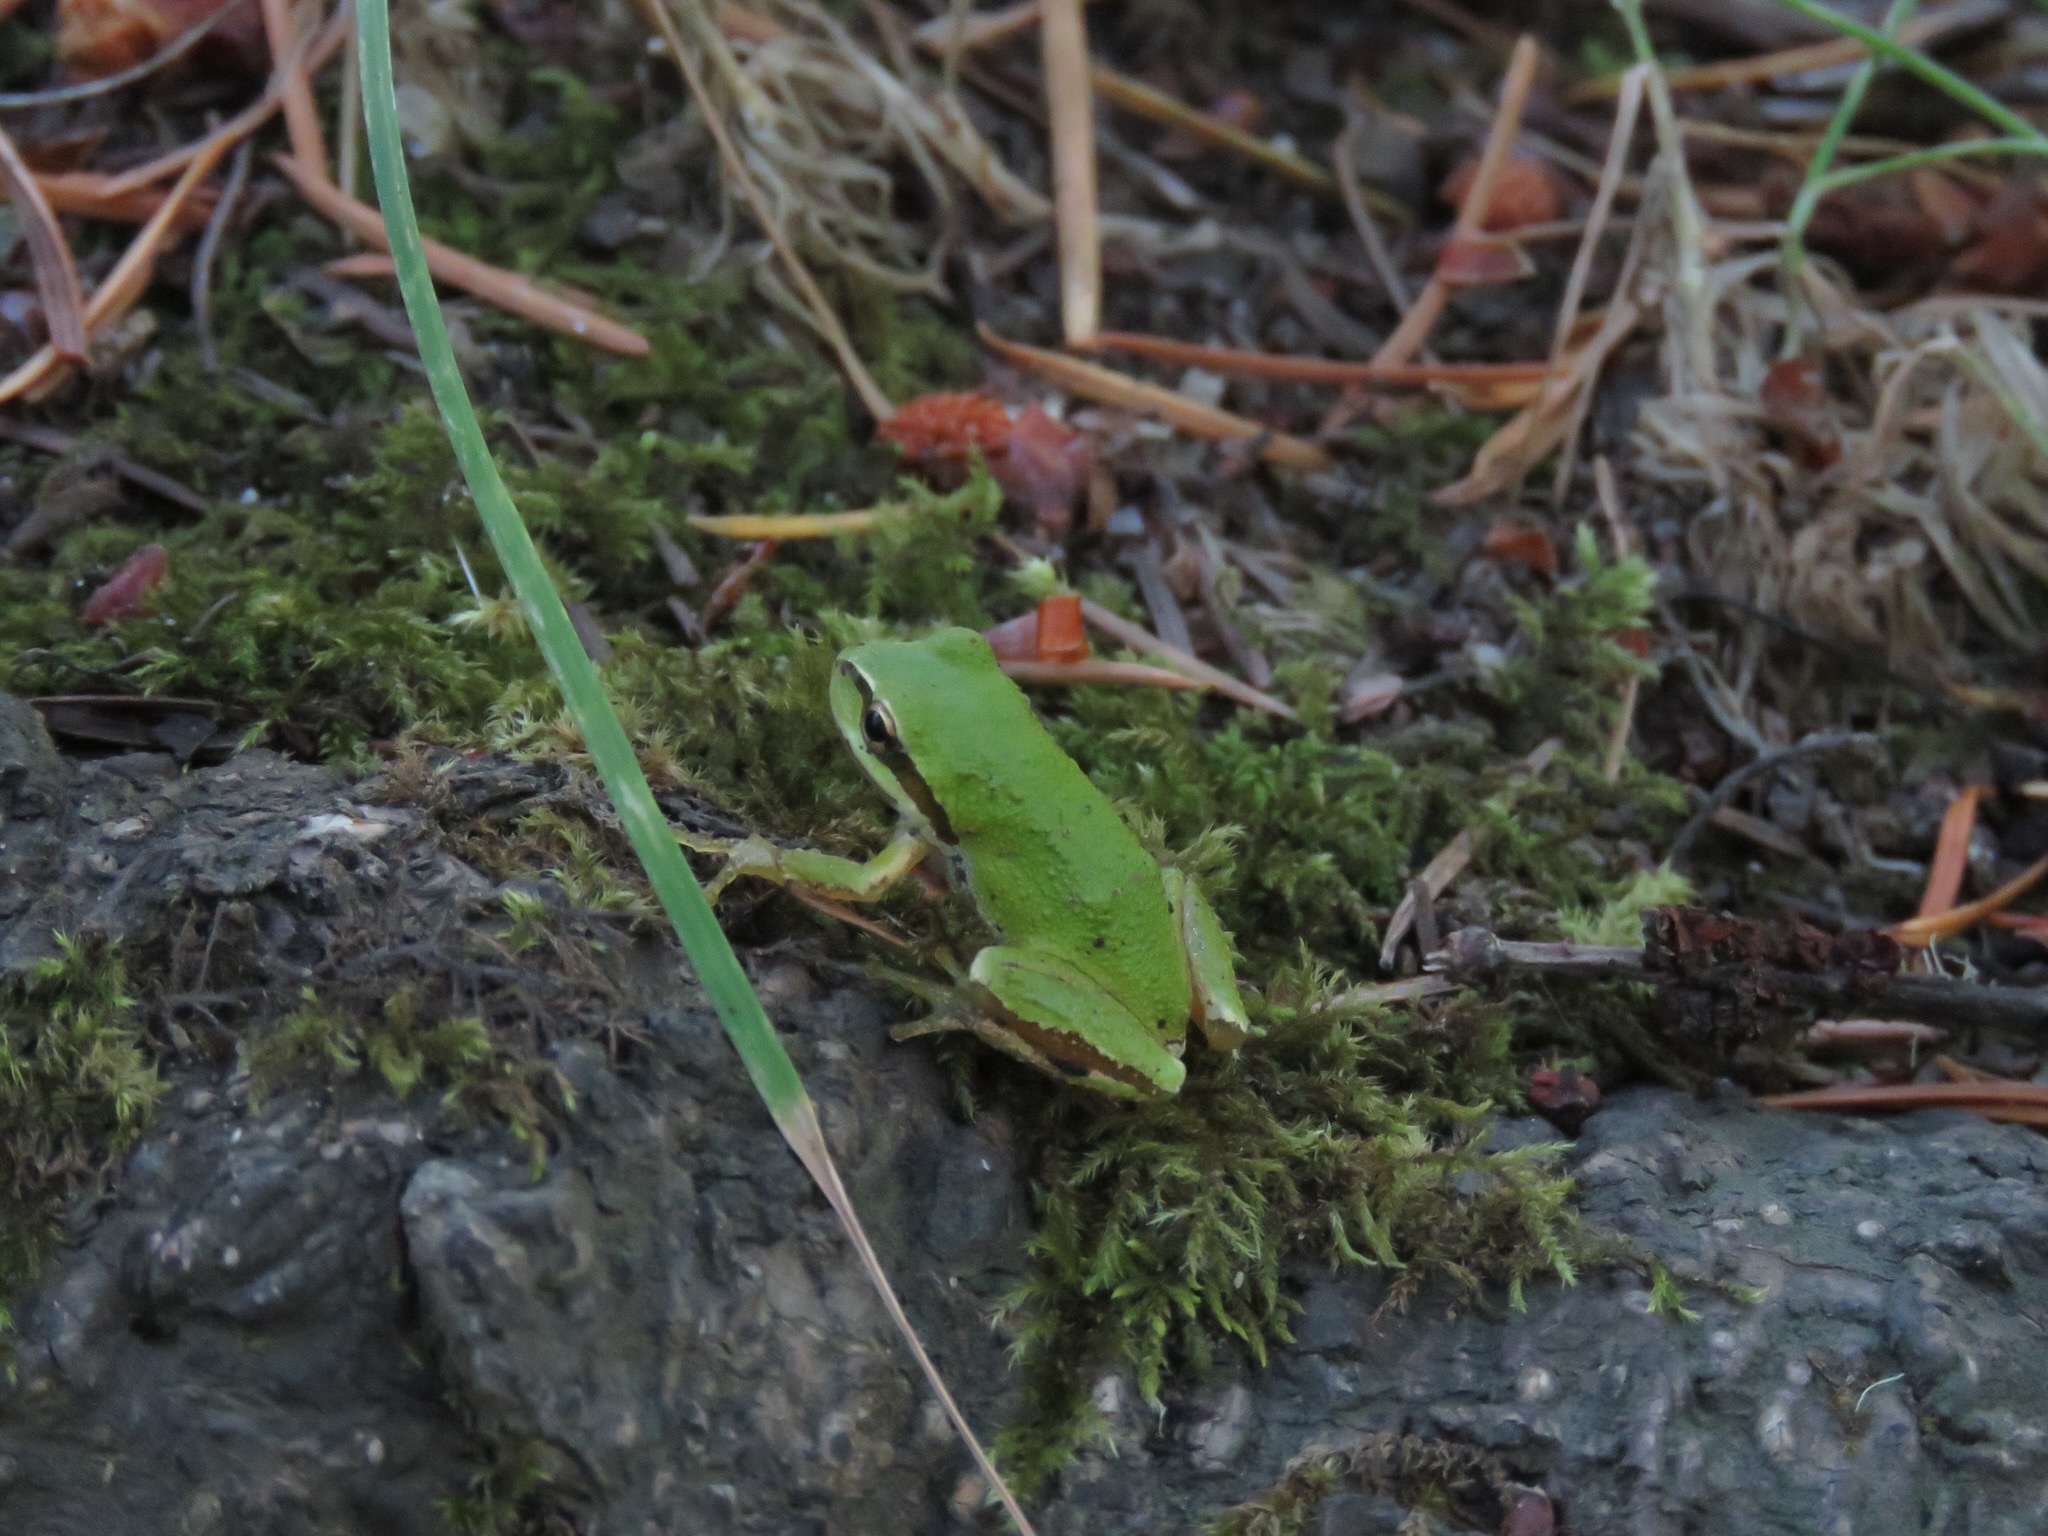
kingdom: Animalia
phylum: Chordata
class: Amphibia
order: Anura
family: Hylidae
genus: Pseudacris
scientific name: Pseudacris regilla
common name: Pacific chorus frog
